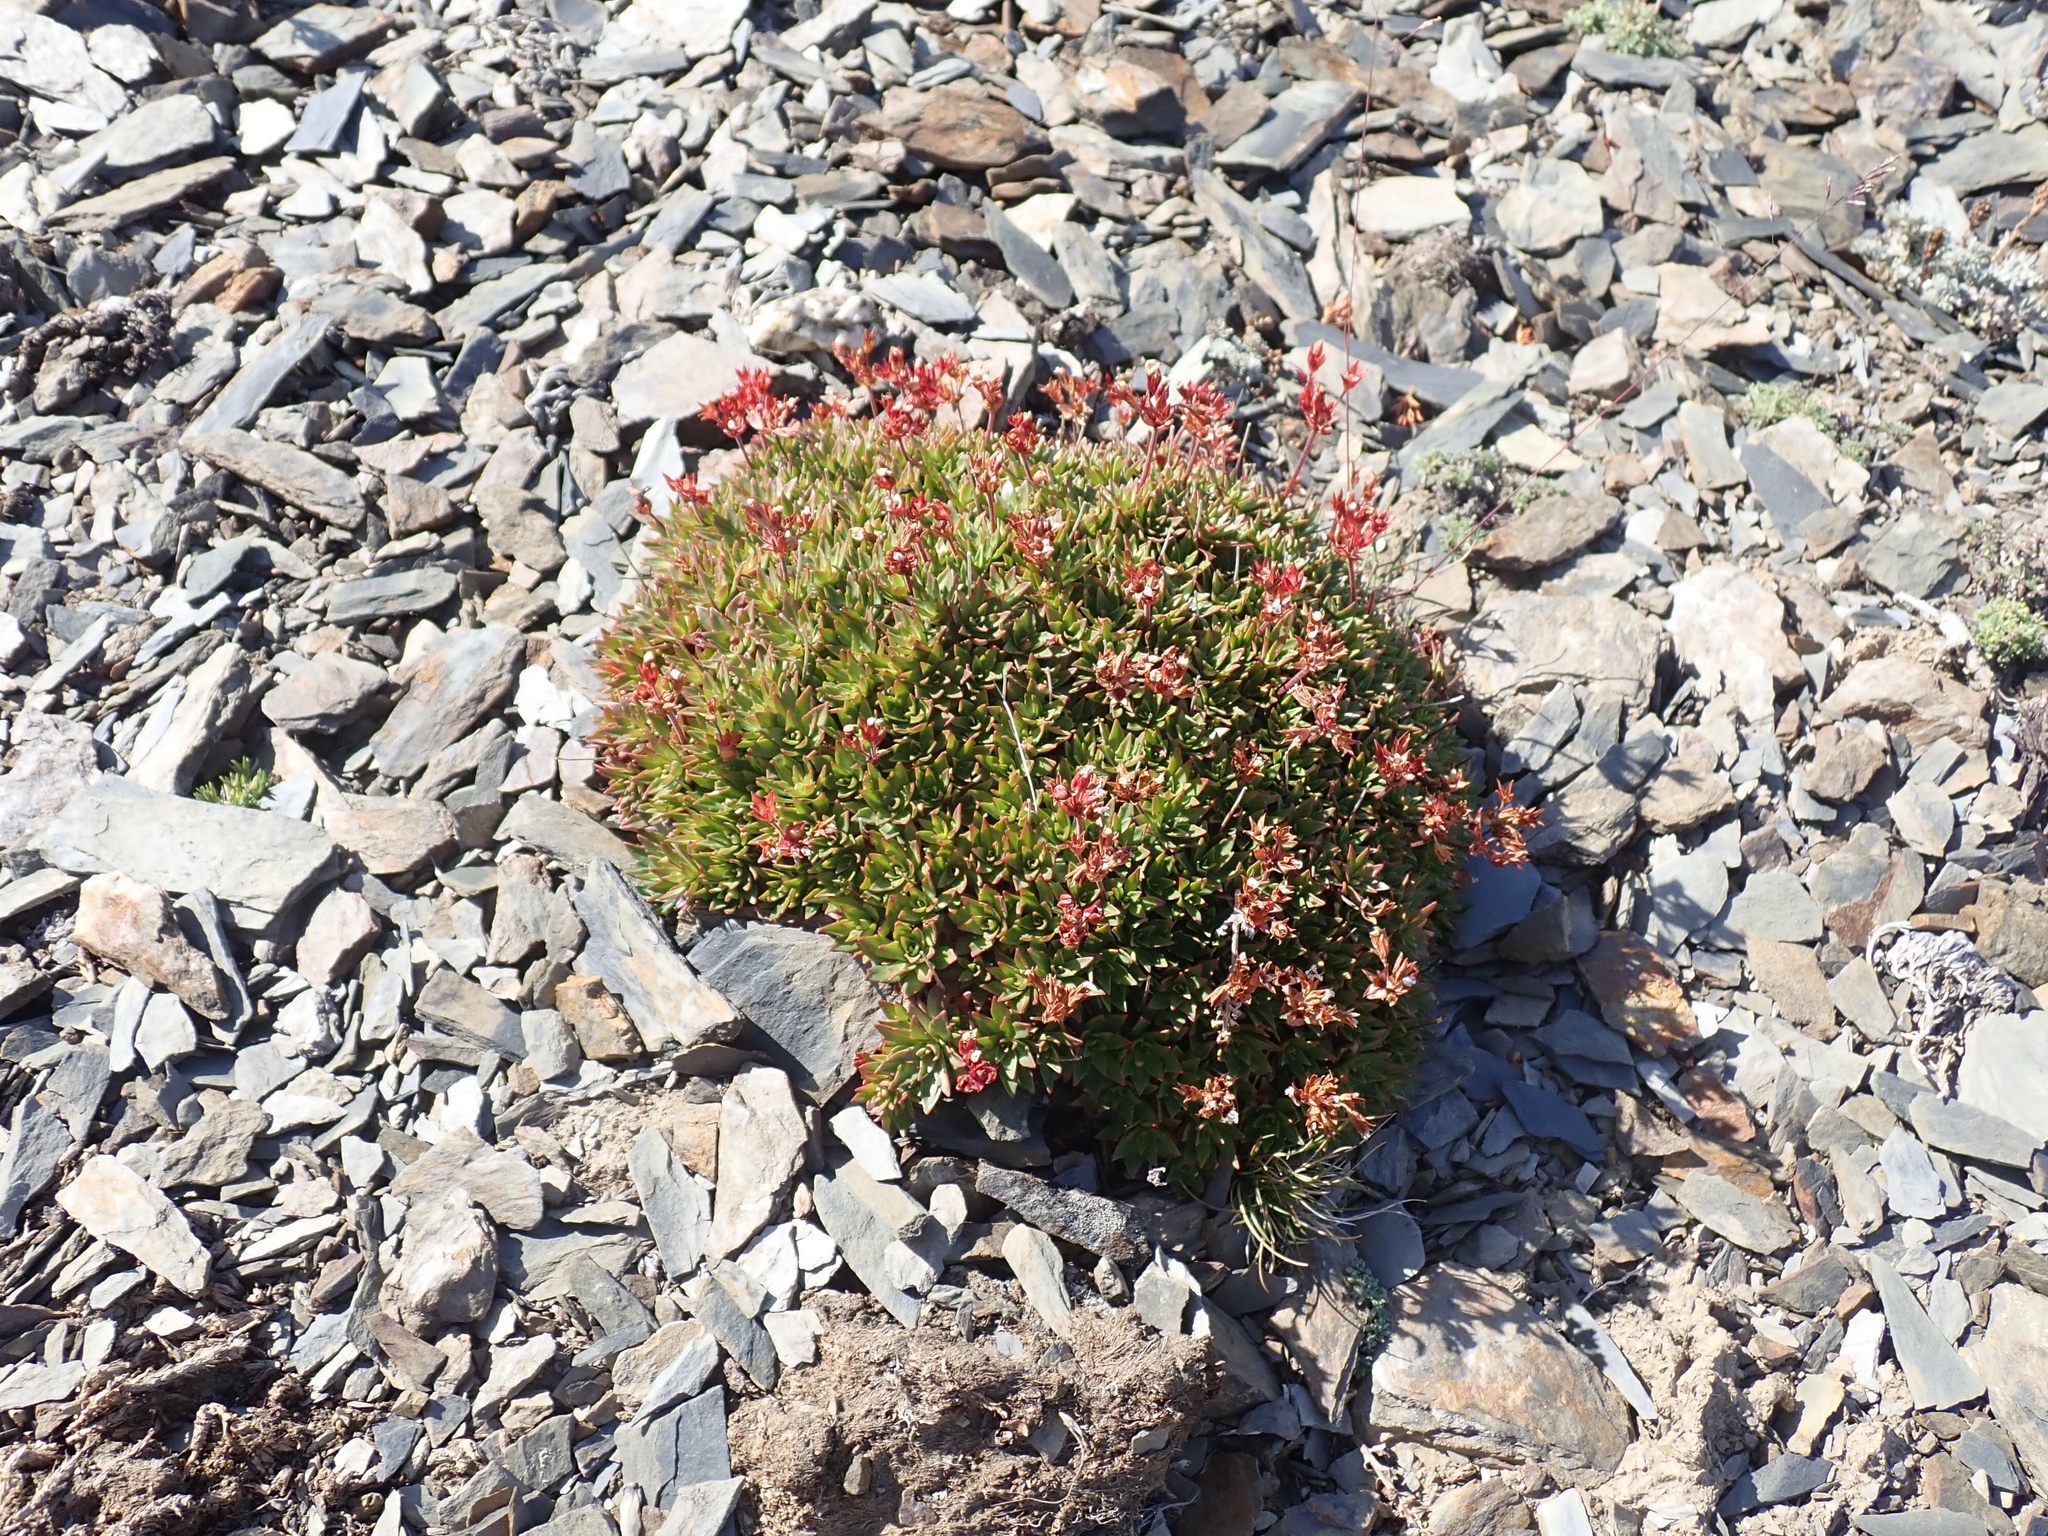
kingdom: Plantae
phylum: Tracheophyta
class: Magnoliopsida
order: Ericales
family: Primulaceae
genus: Androsace
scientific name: Androsace laevigata
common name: Cliff dwarf-primrose
